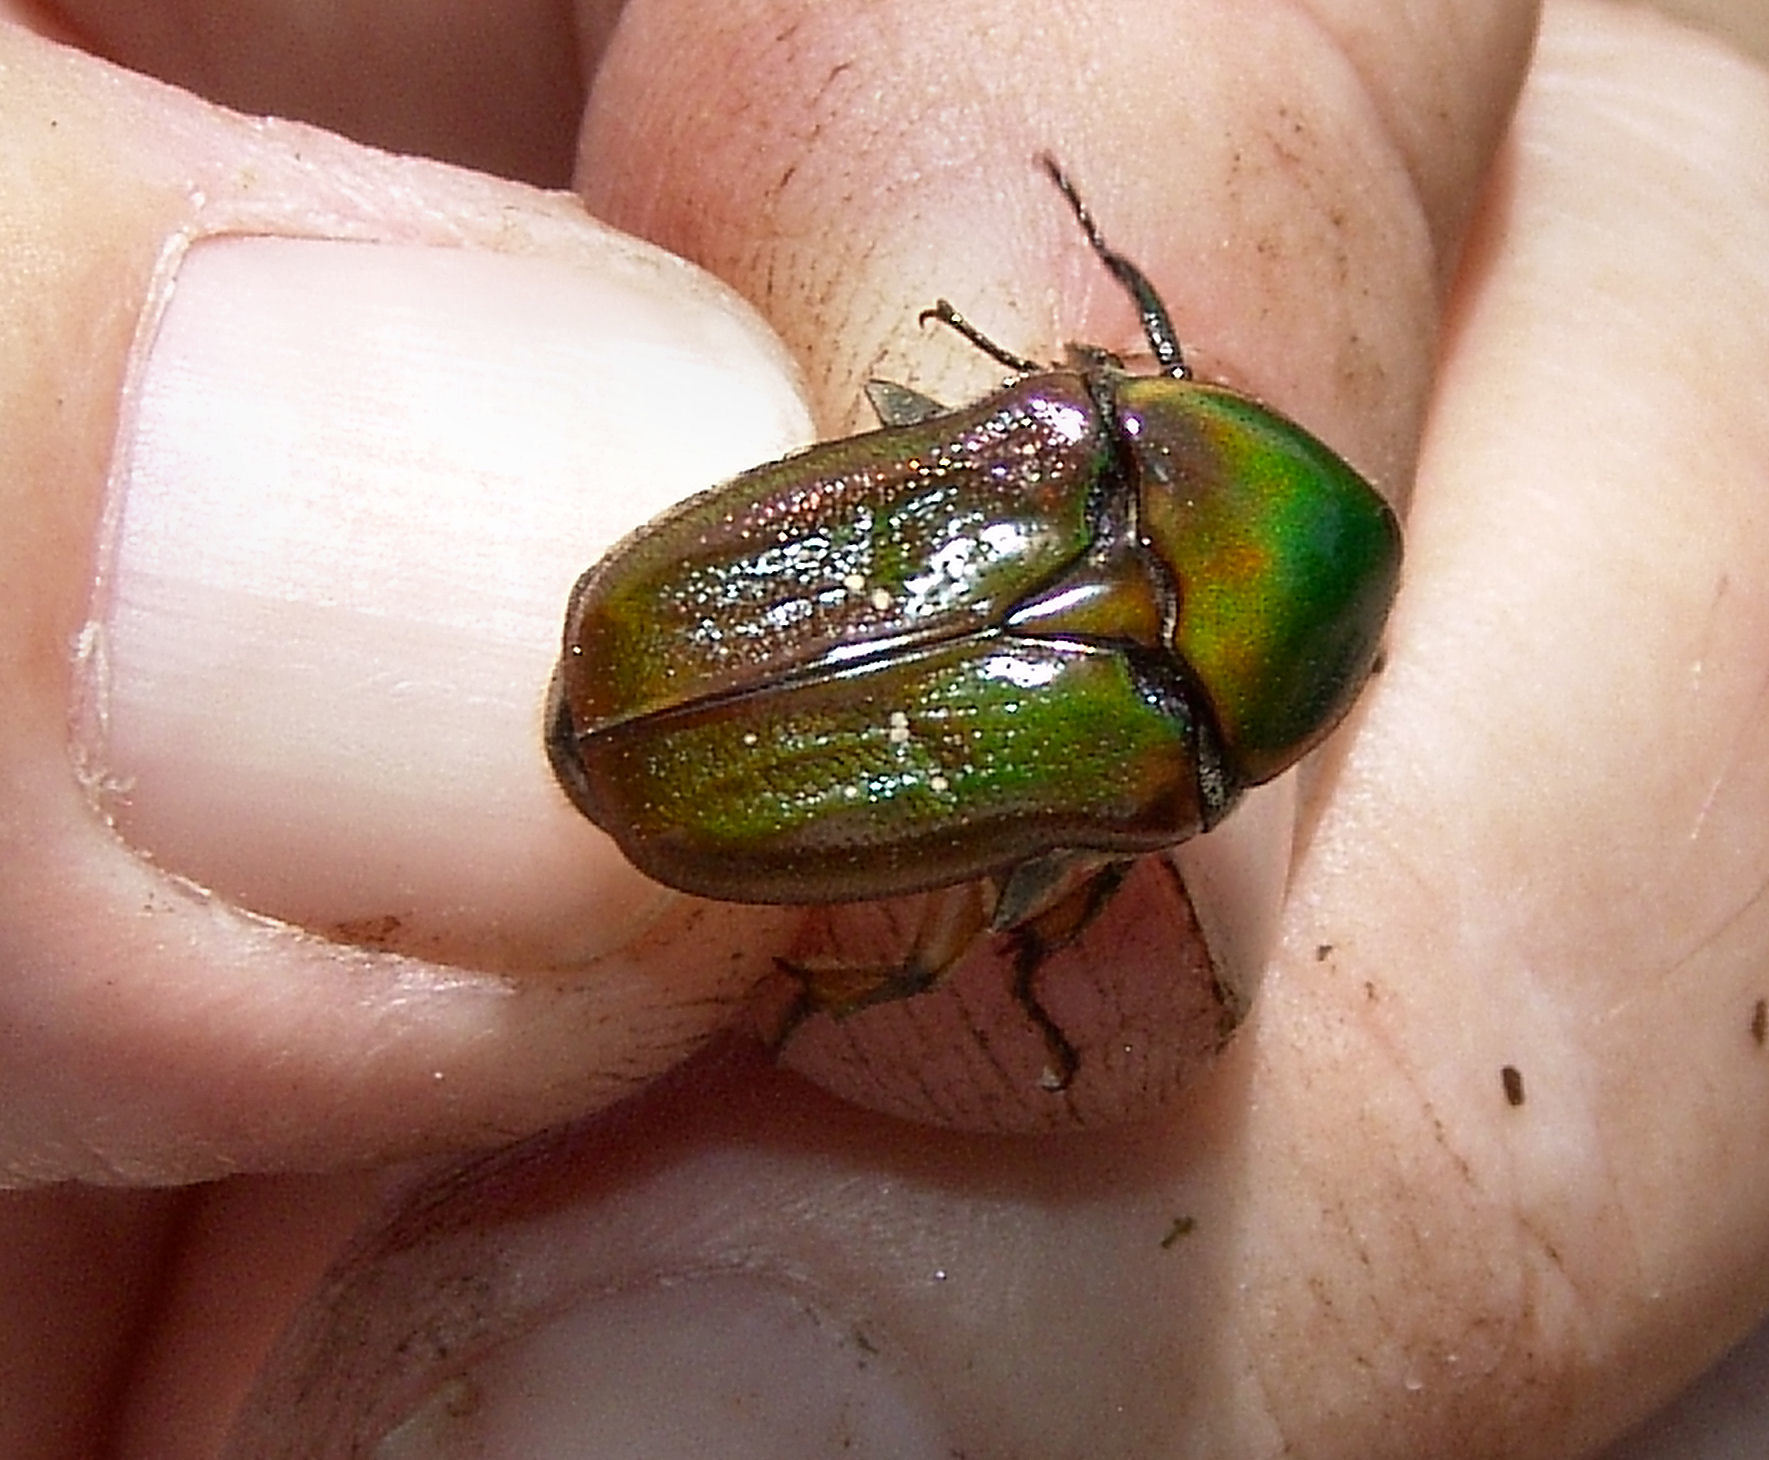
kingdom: Animalia
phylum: Arthropoda
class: Insecta
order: Coleoptera
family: Scarabaeidae
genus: Euphoria
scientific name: Euphoria fulgida
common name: Emerald euphoria
